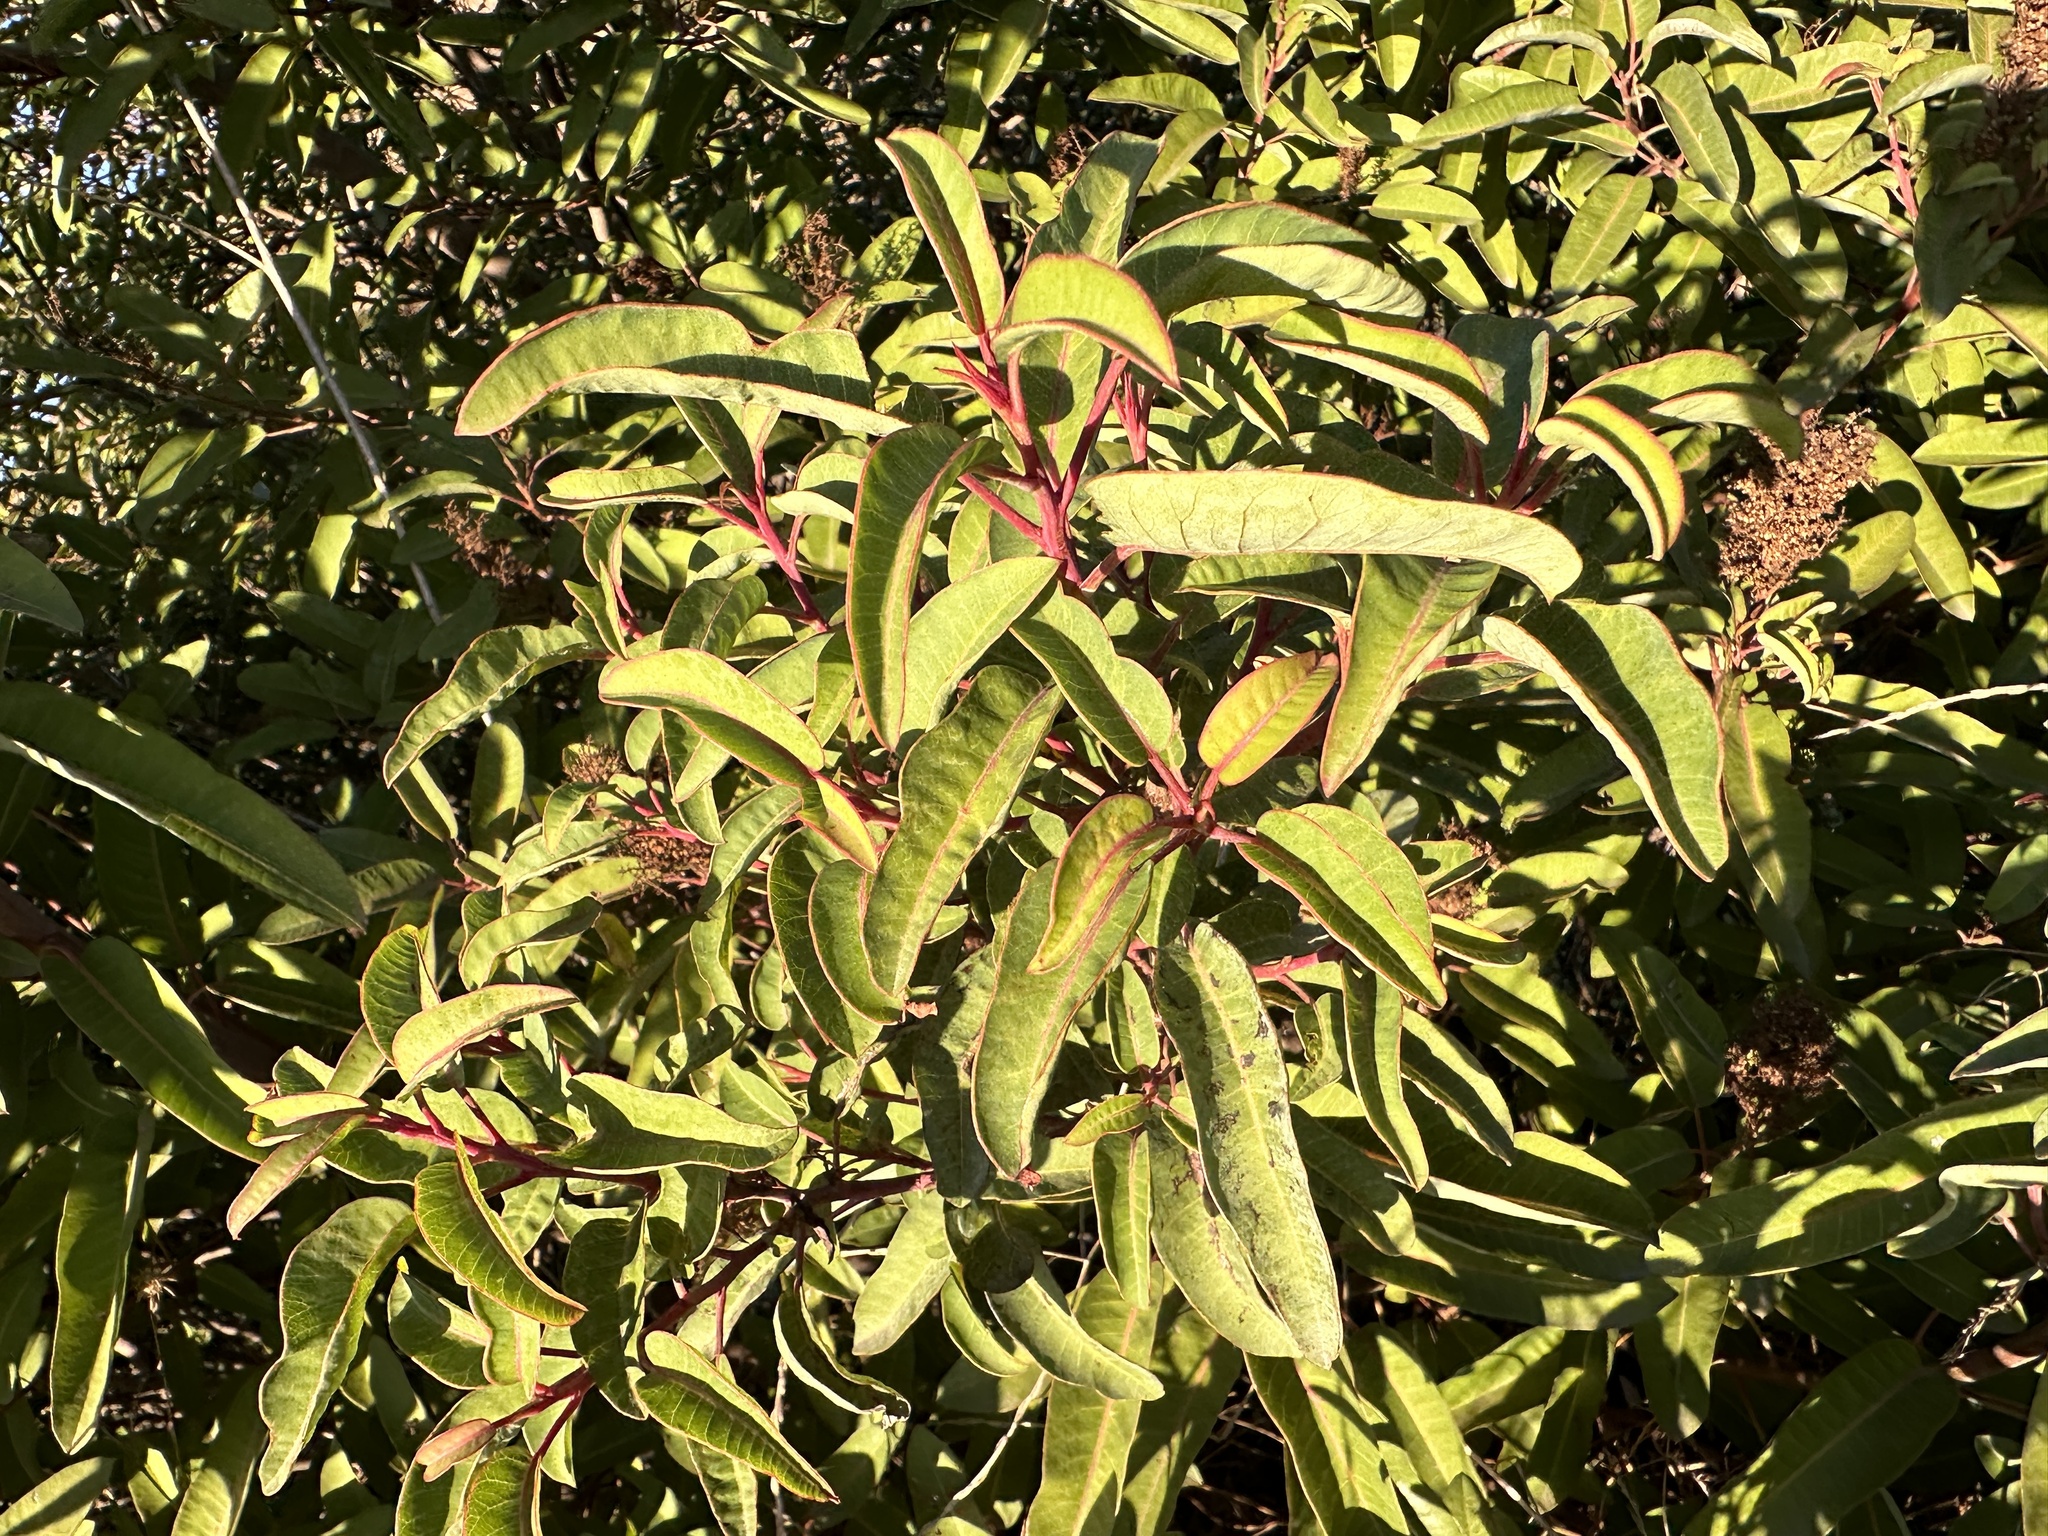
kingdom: Plantae
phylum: Tracheophyta
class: Magnoliopsida
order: Sapindales
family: Anacardiaceae
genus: Malosma
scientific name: Malosma laurina
